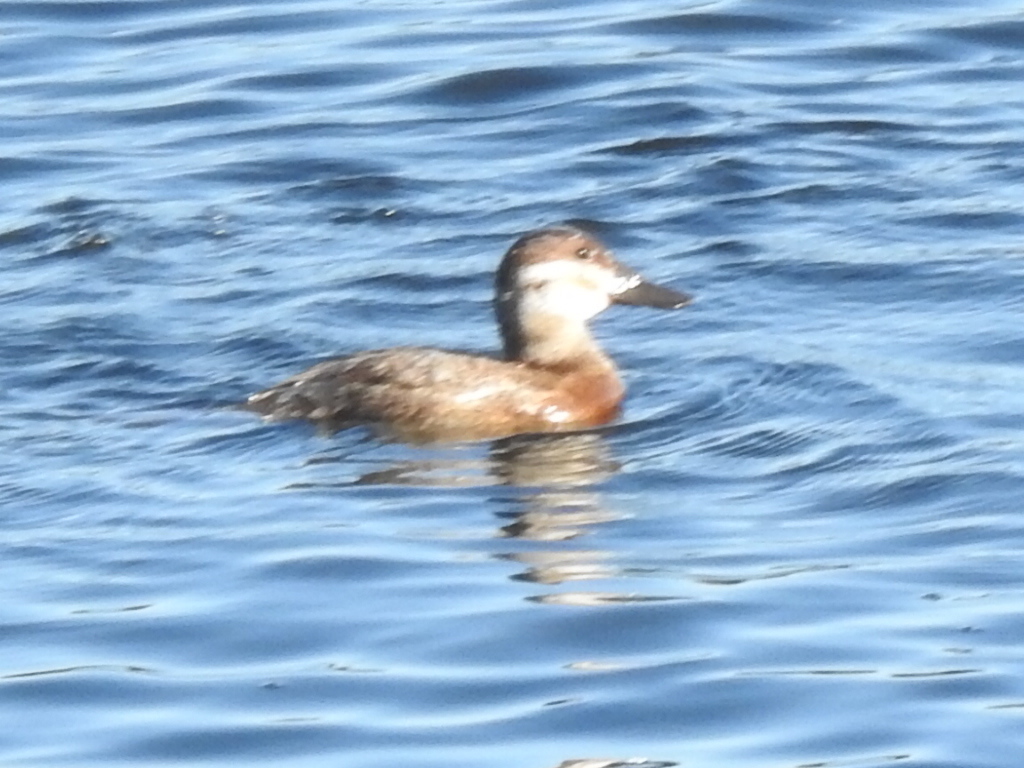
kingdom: Animalia
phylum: Chordata
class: Aves
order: Anseriformes
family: Anatidae
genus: Oxyura
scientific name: Oxyura jamaicensis
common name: Ruddy duck
